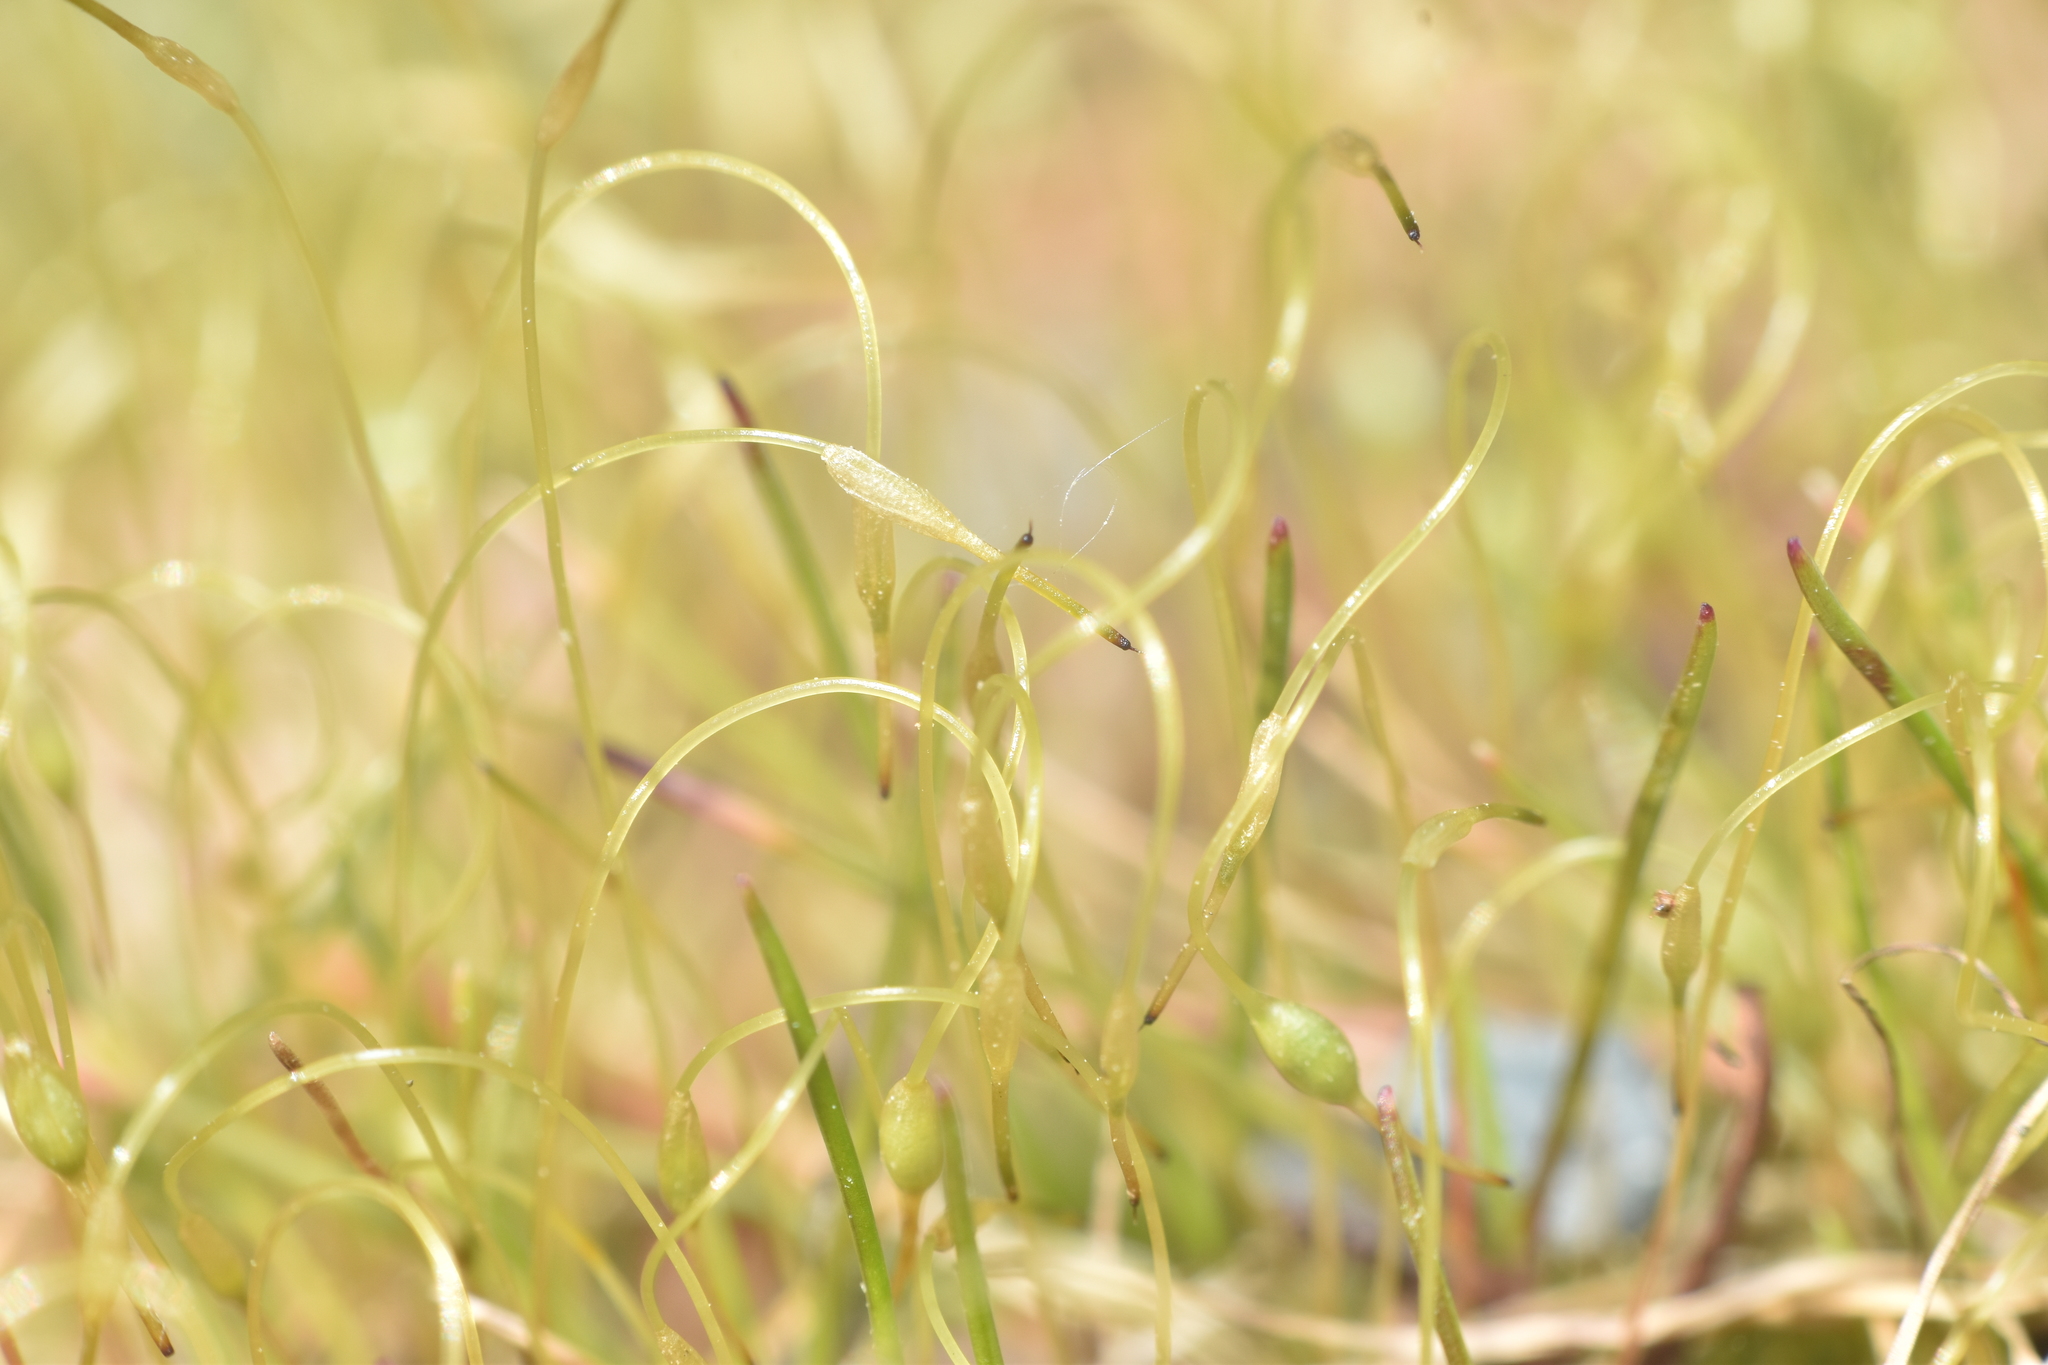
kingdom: Plantae
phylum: Bryophyta
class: Bryopsida
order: Funariales
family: Funariaceae
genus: Funaria
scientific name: Funaria hygrometrica
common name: Common cord moss
